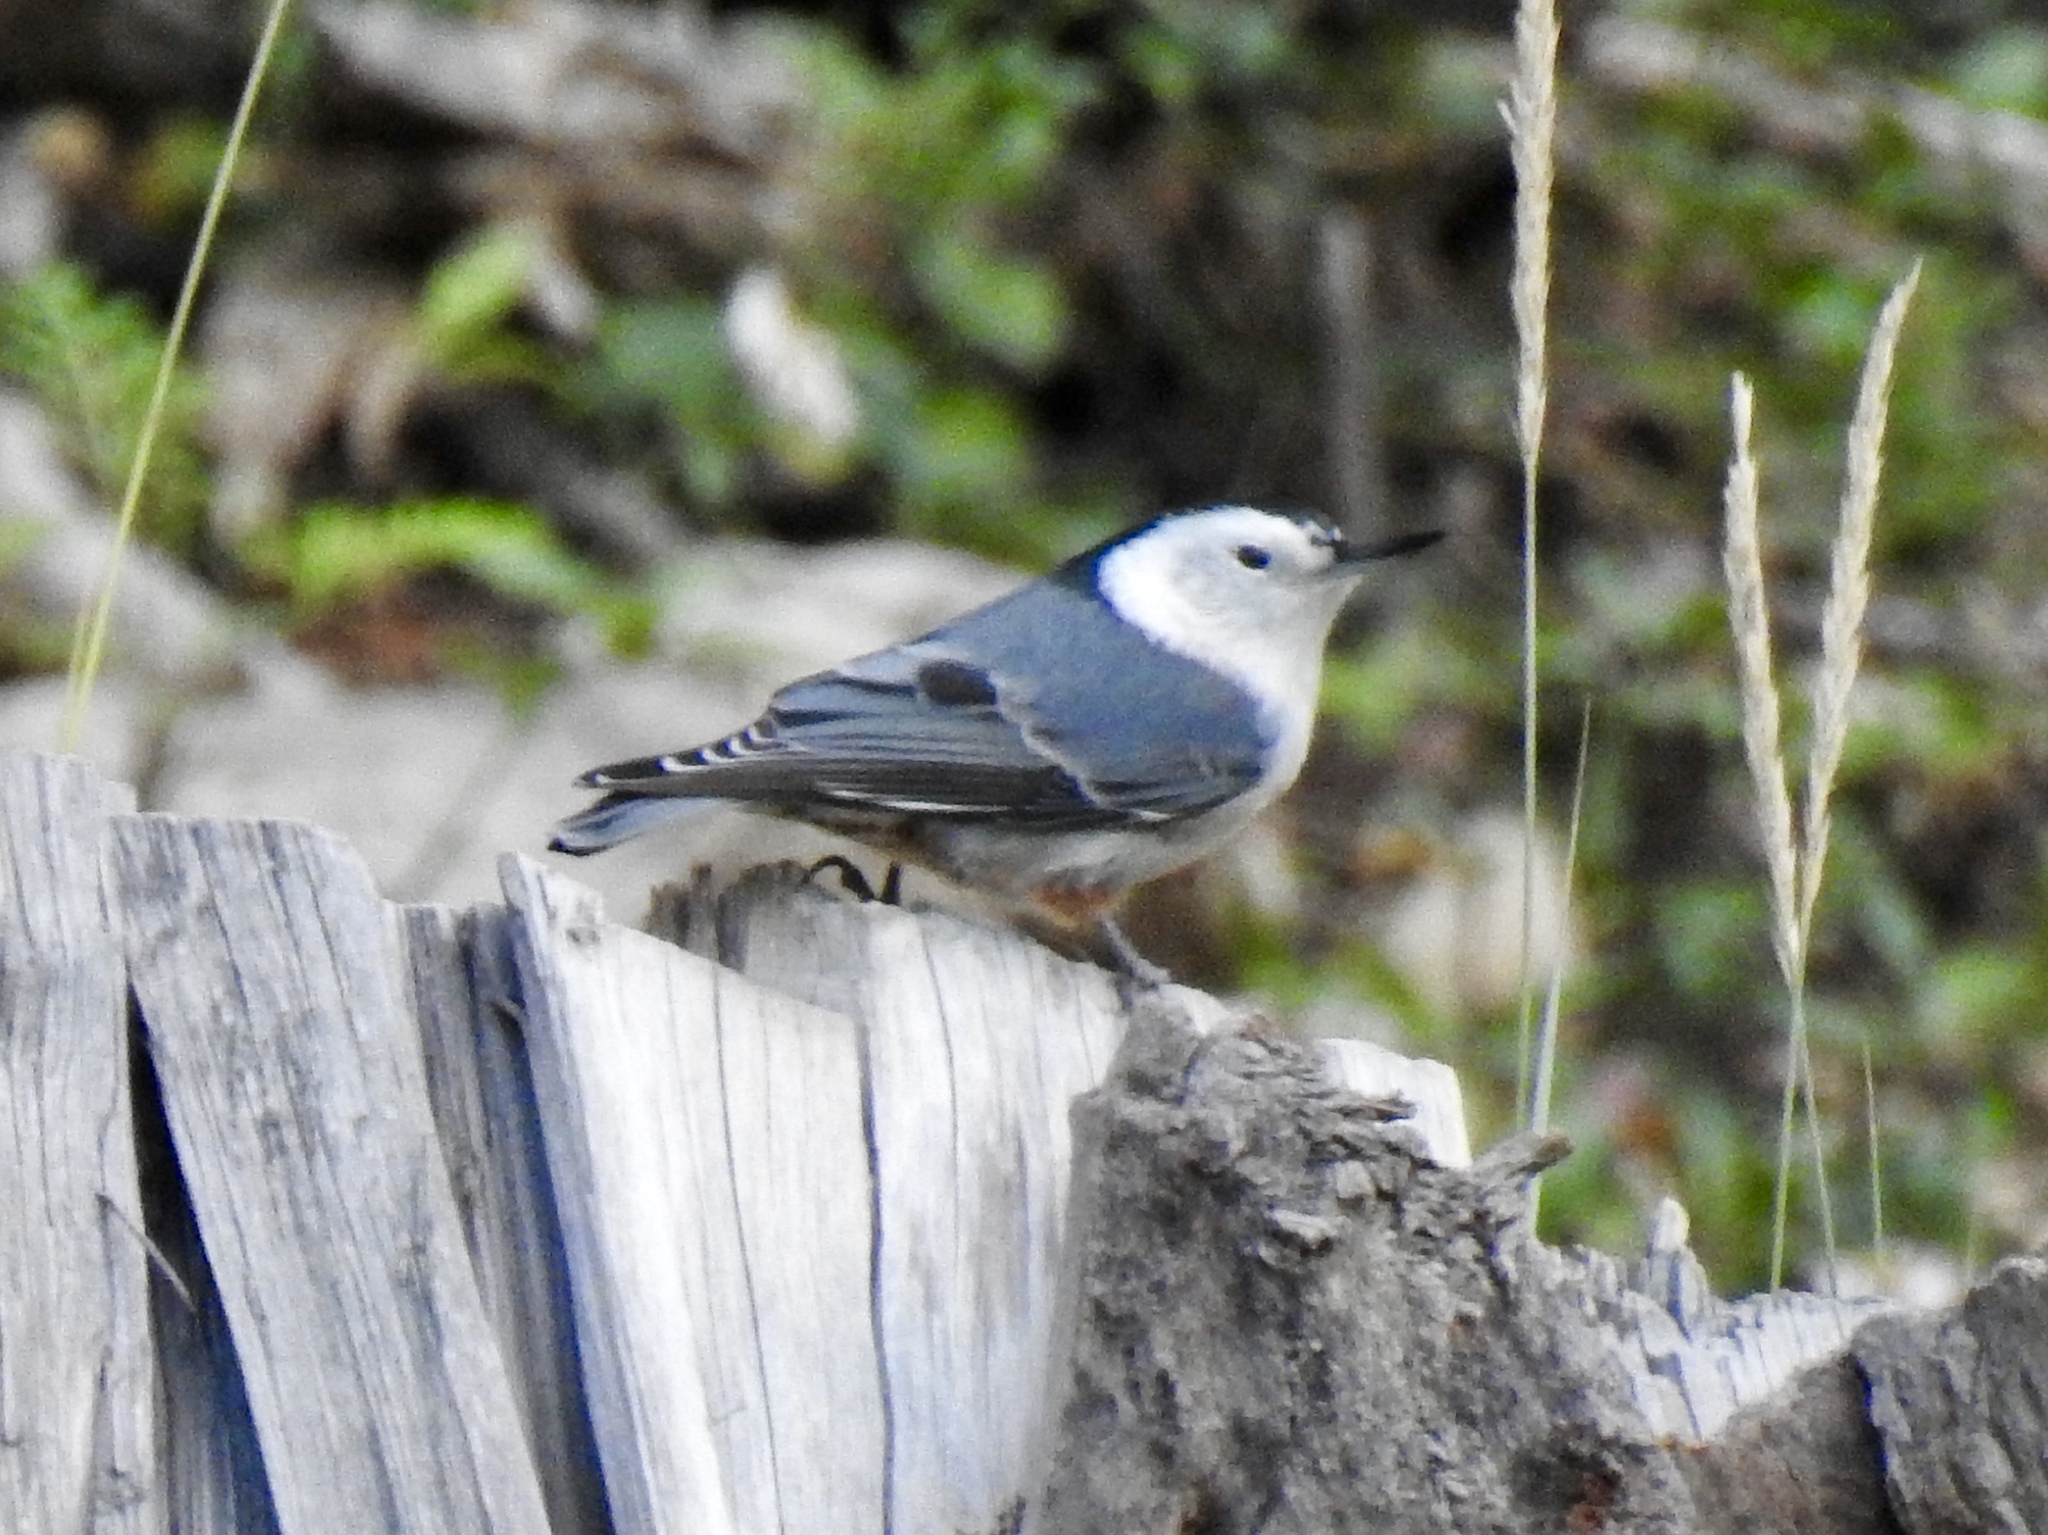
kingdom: Animalia
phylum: Chordata
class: Aves
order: Passeriformes
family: Sittidae
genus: Sitta
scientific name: Sitta carolinensis
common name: White-breasted nuthatch
